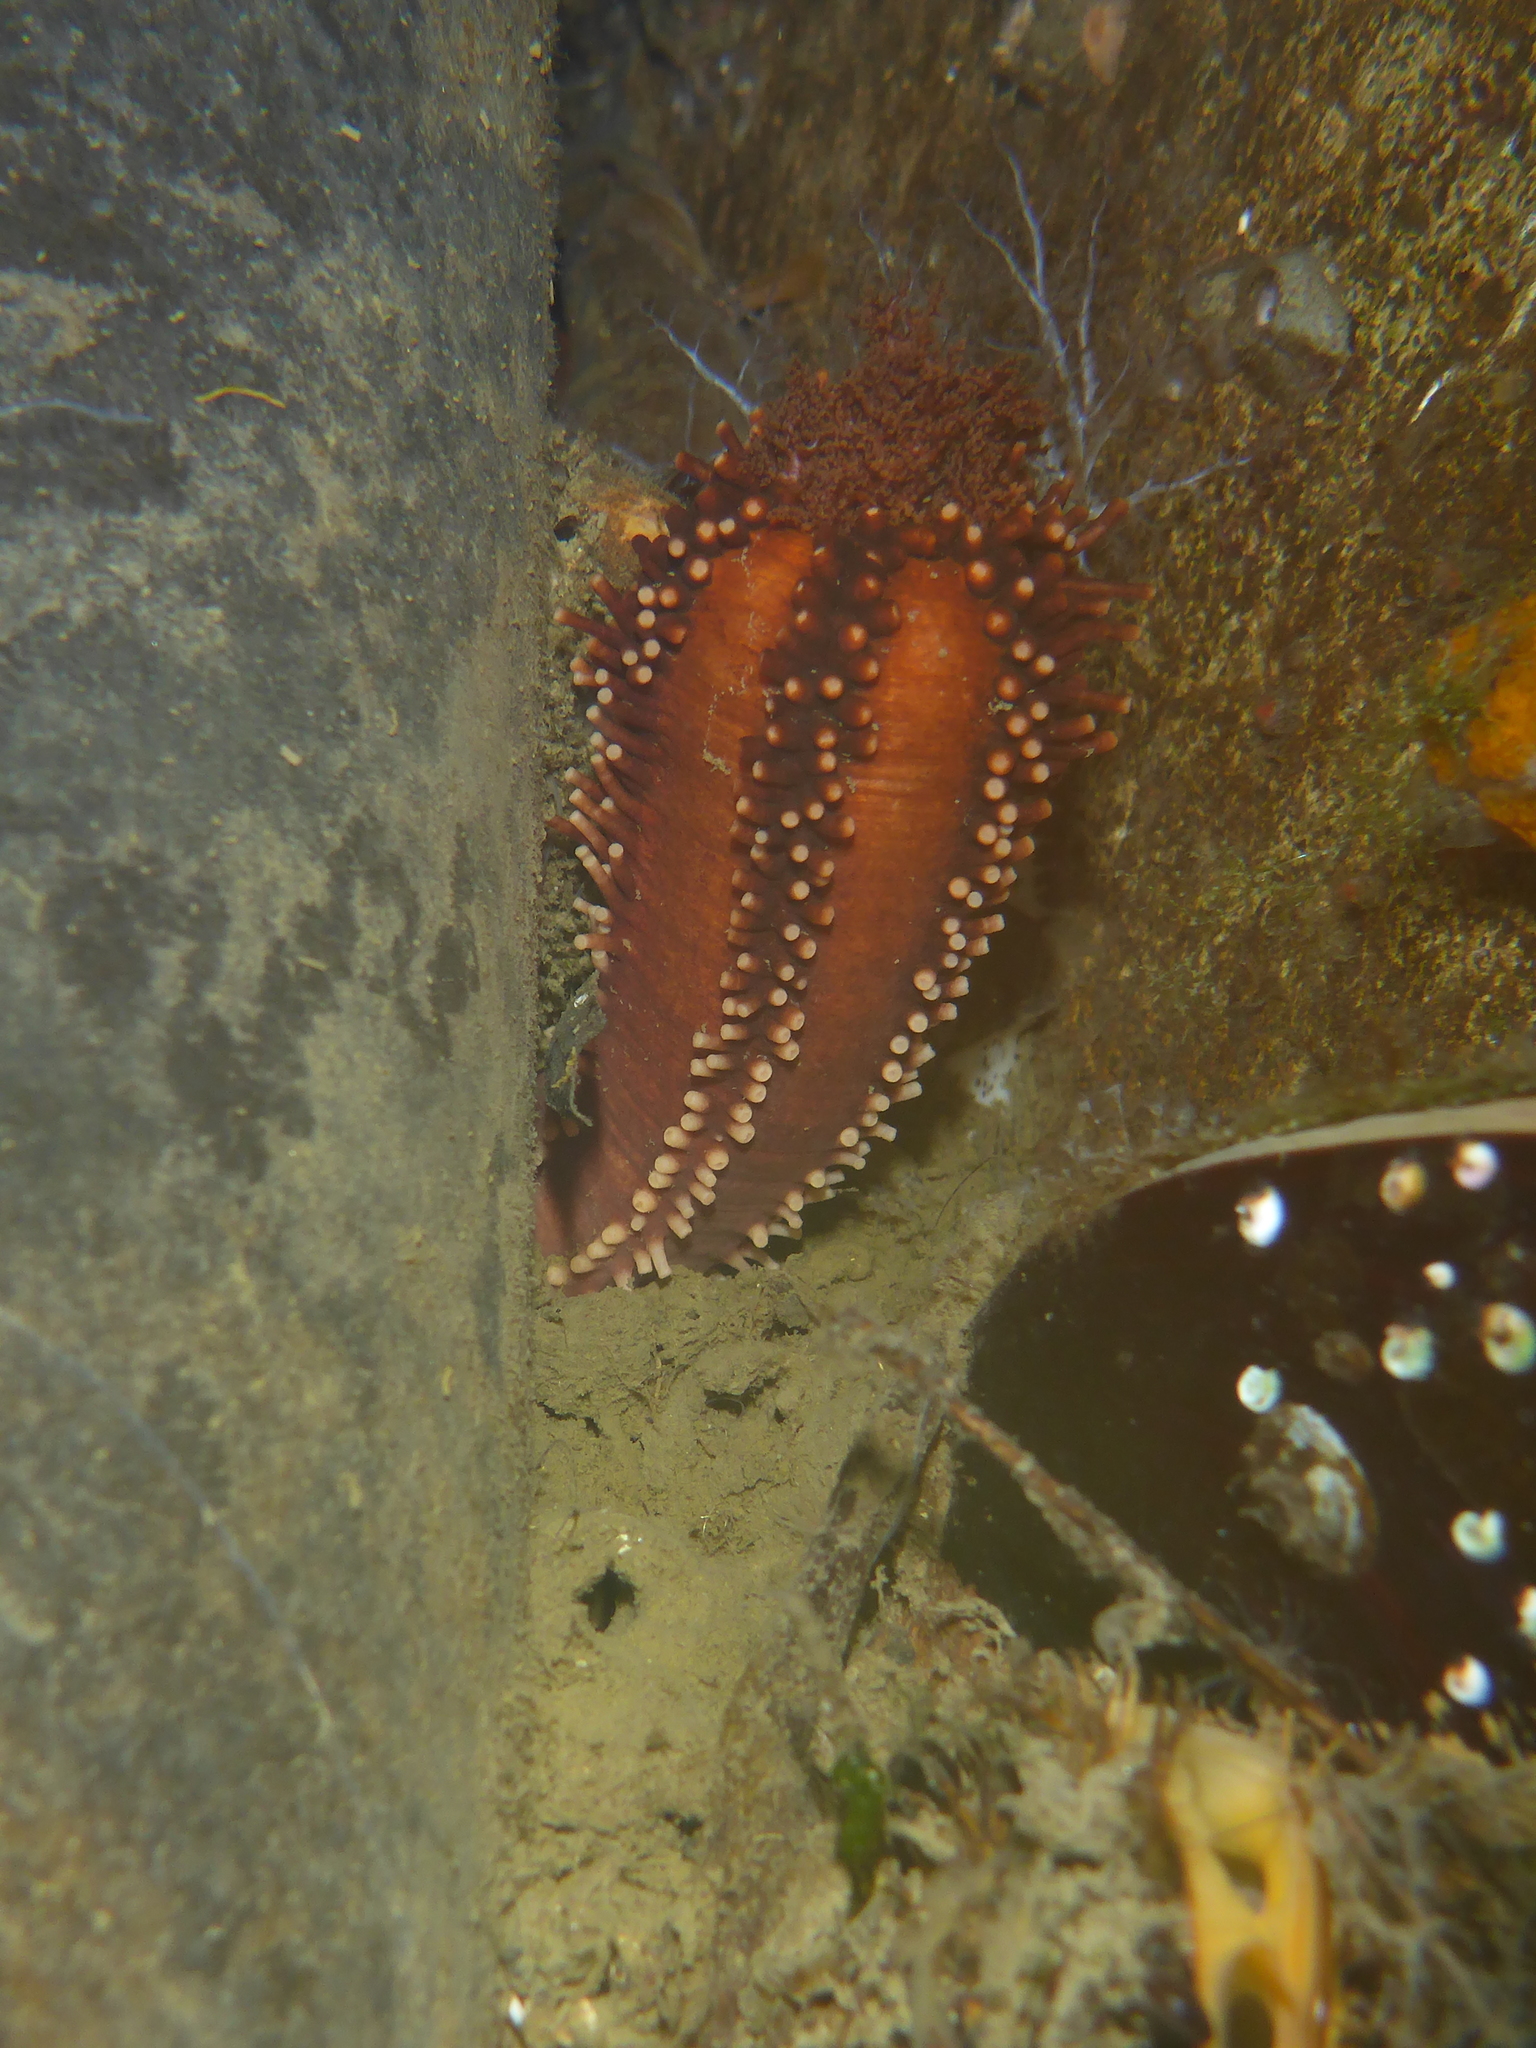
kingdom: Animalia
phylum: Echinodermata
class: Holothuroidea
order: Dendrochirotida
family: Cucumariidae
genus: Cucumaria
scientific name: Cucumaria miniata
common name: Orange sea cucumber
